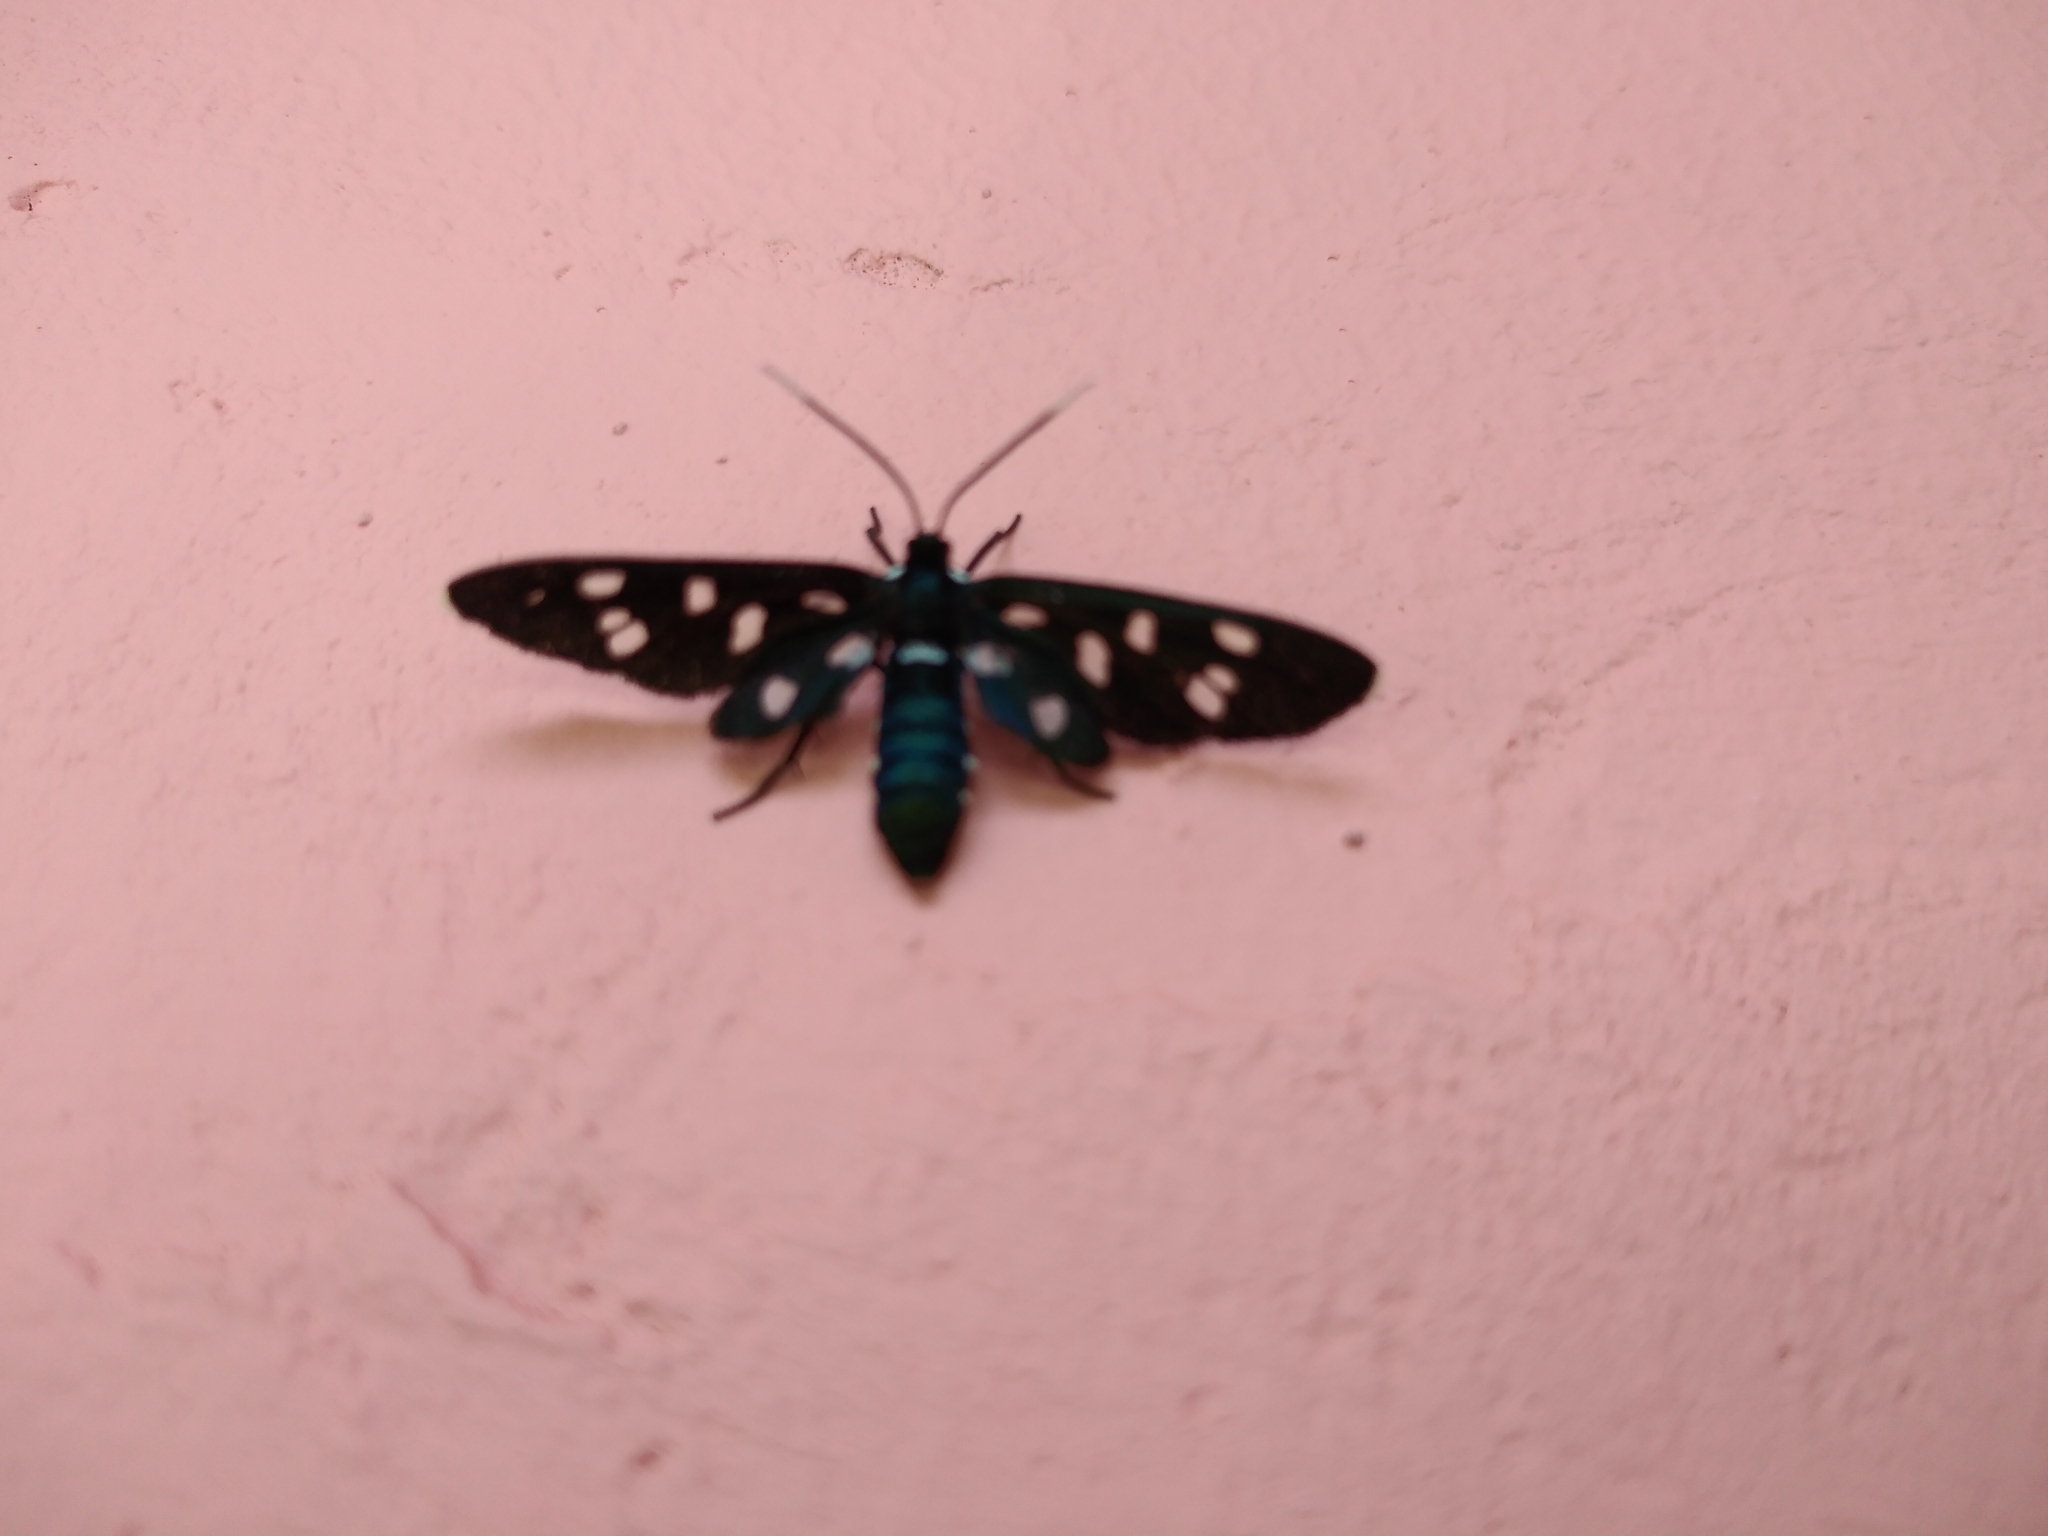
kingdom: Animalia
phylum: Arthropoda
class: Insecta
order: Lepidoptera
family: Erebidae
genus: Ceryx
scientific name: Ceryx longipes
